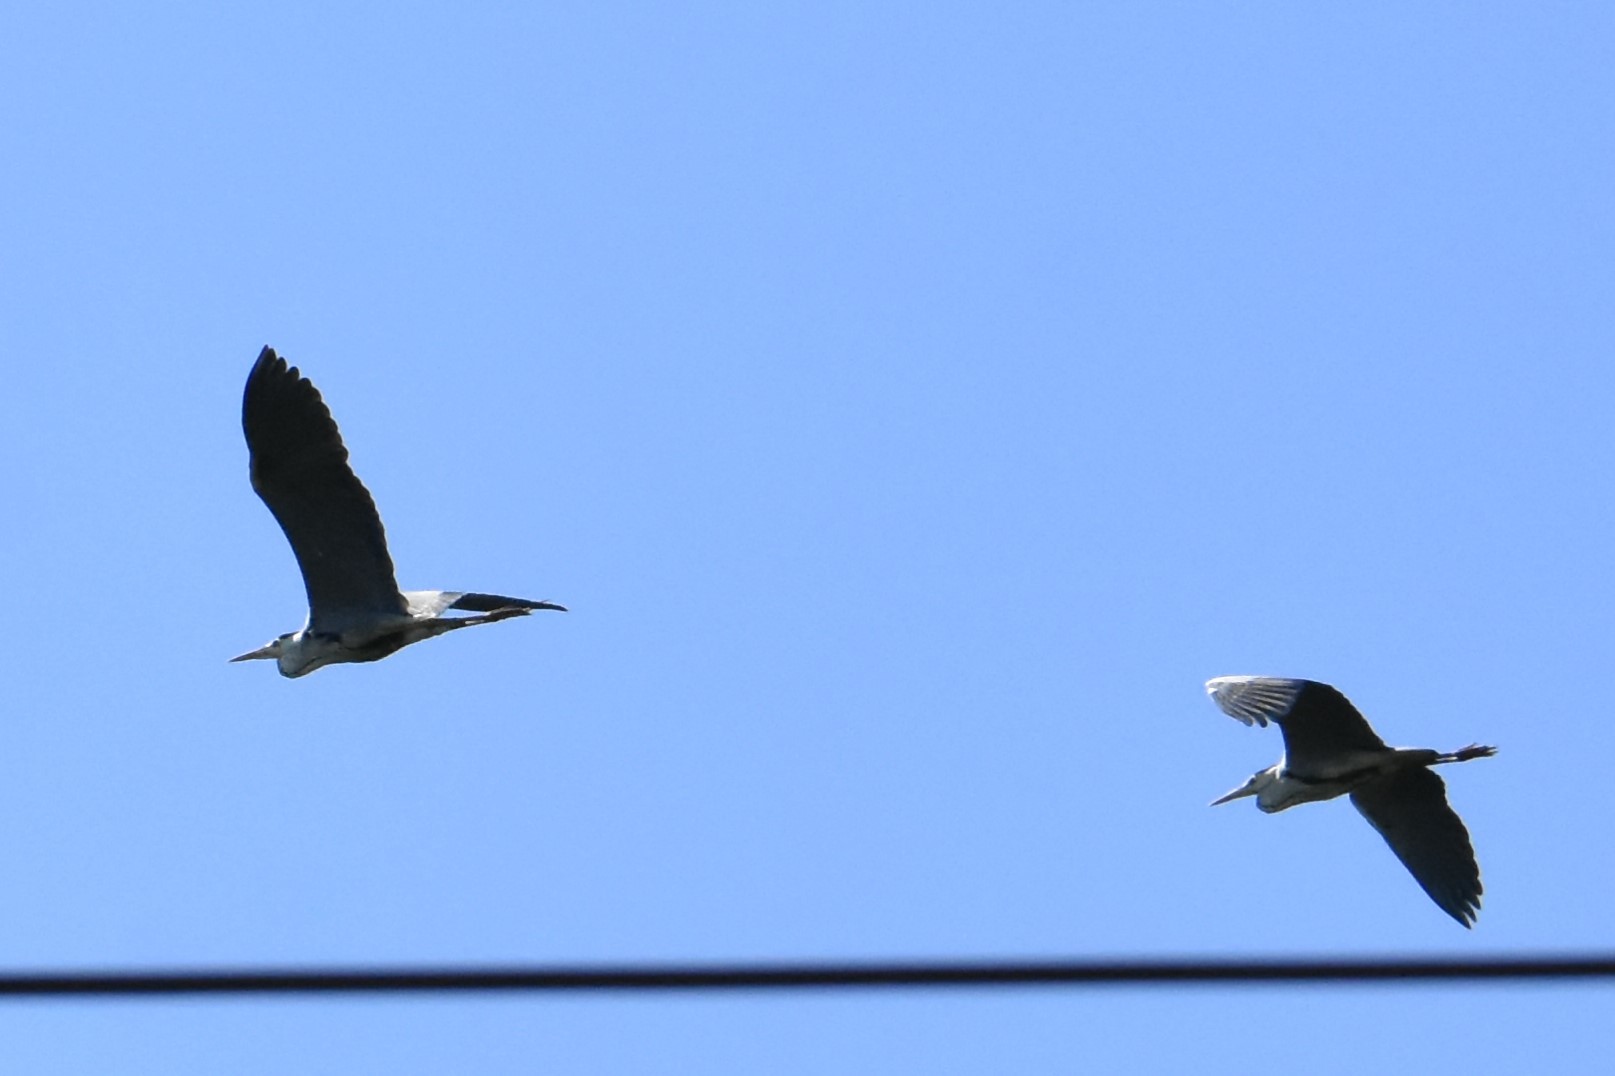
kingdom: Animalia
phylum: Chordata
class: Aves
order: Pelecaniformes
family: Ardeidae
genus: Ardea
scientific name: Ardea cinerea
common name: Grey heron
